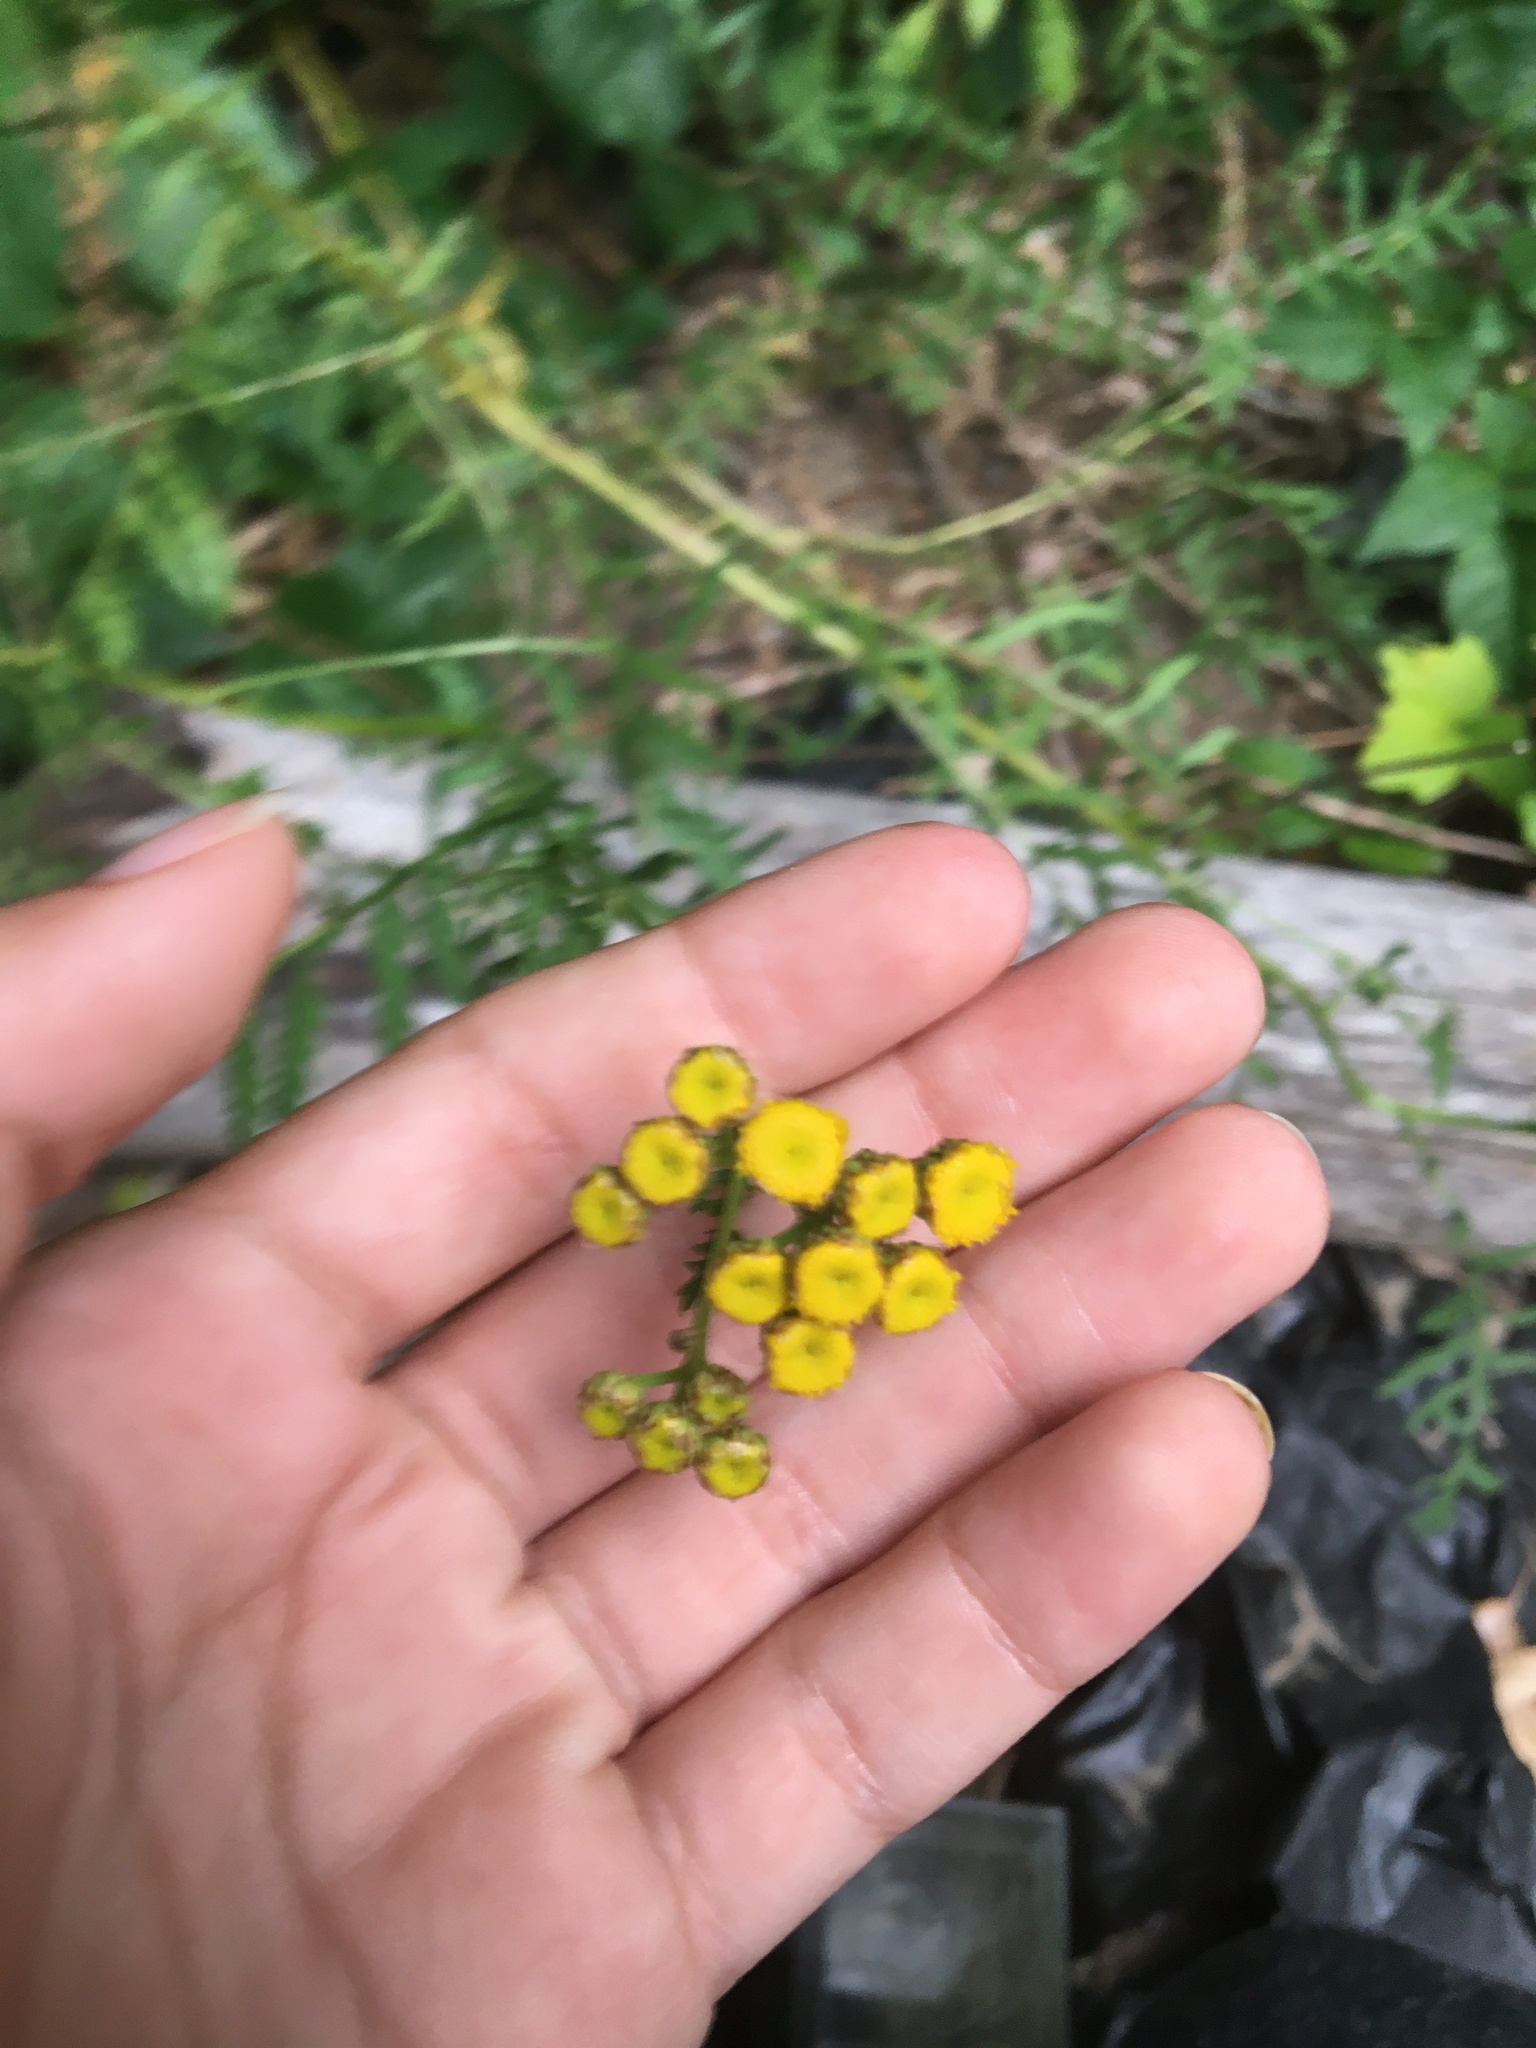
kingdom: Plantae
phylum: Tracheophyta
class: Magnoliopsida
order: Asterales
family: Asteraceae
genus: Tanacetum
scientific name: Tanacetum vulgare
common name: Common tansy
